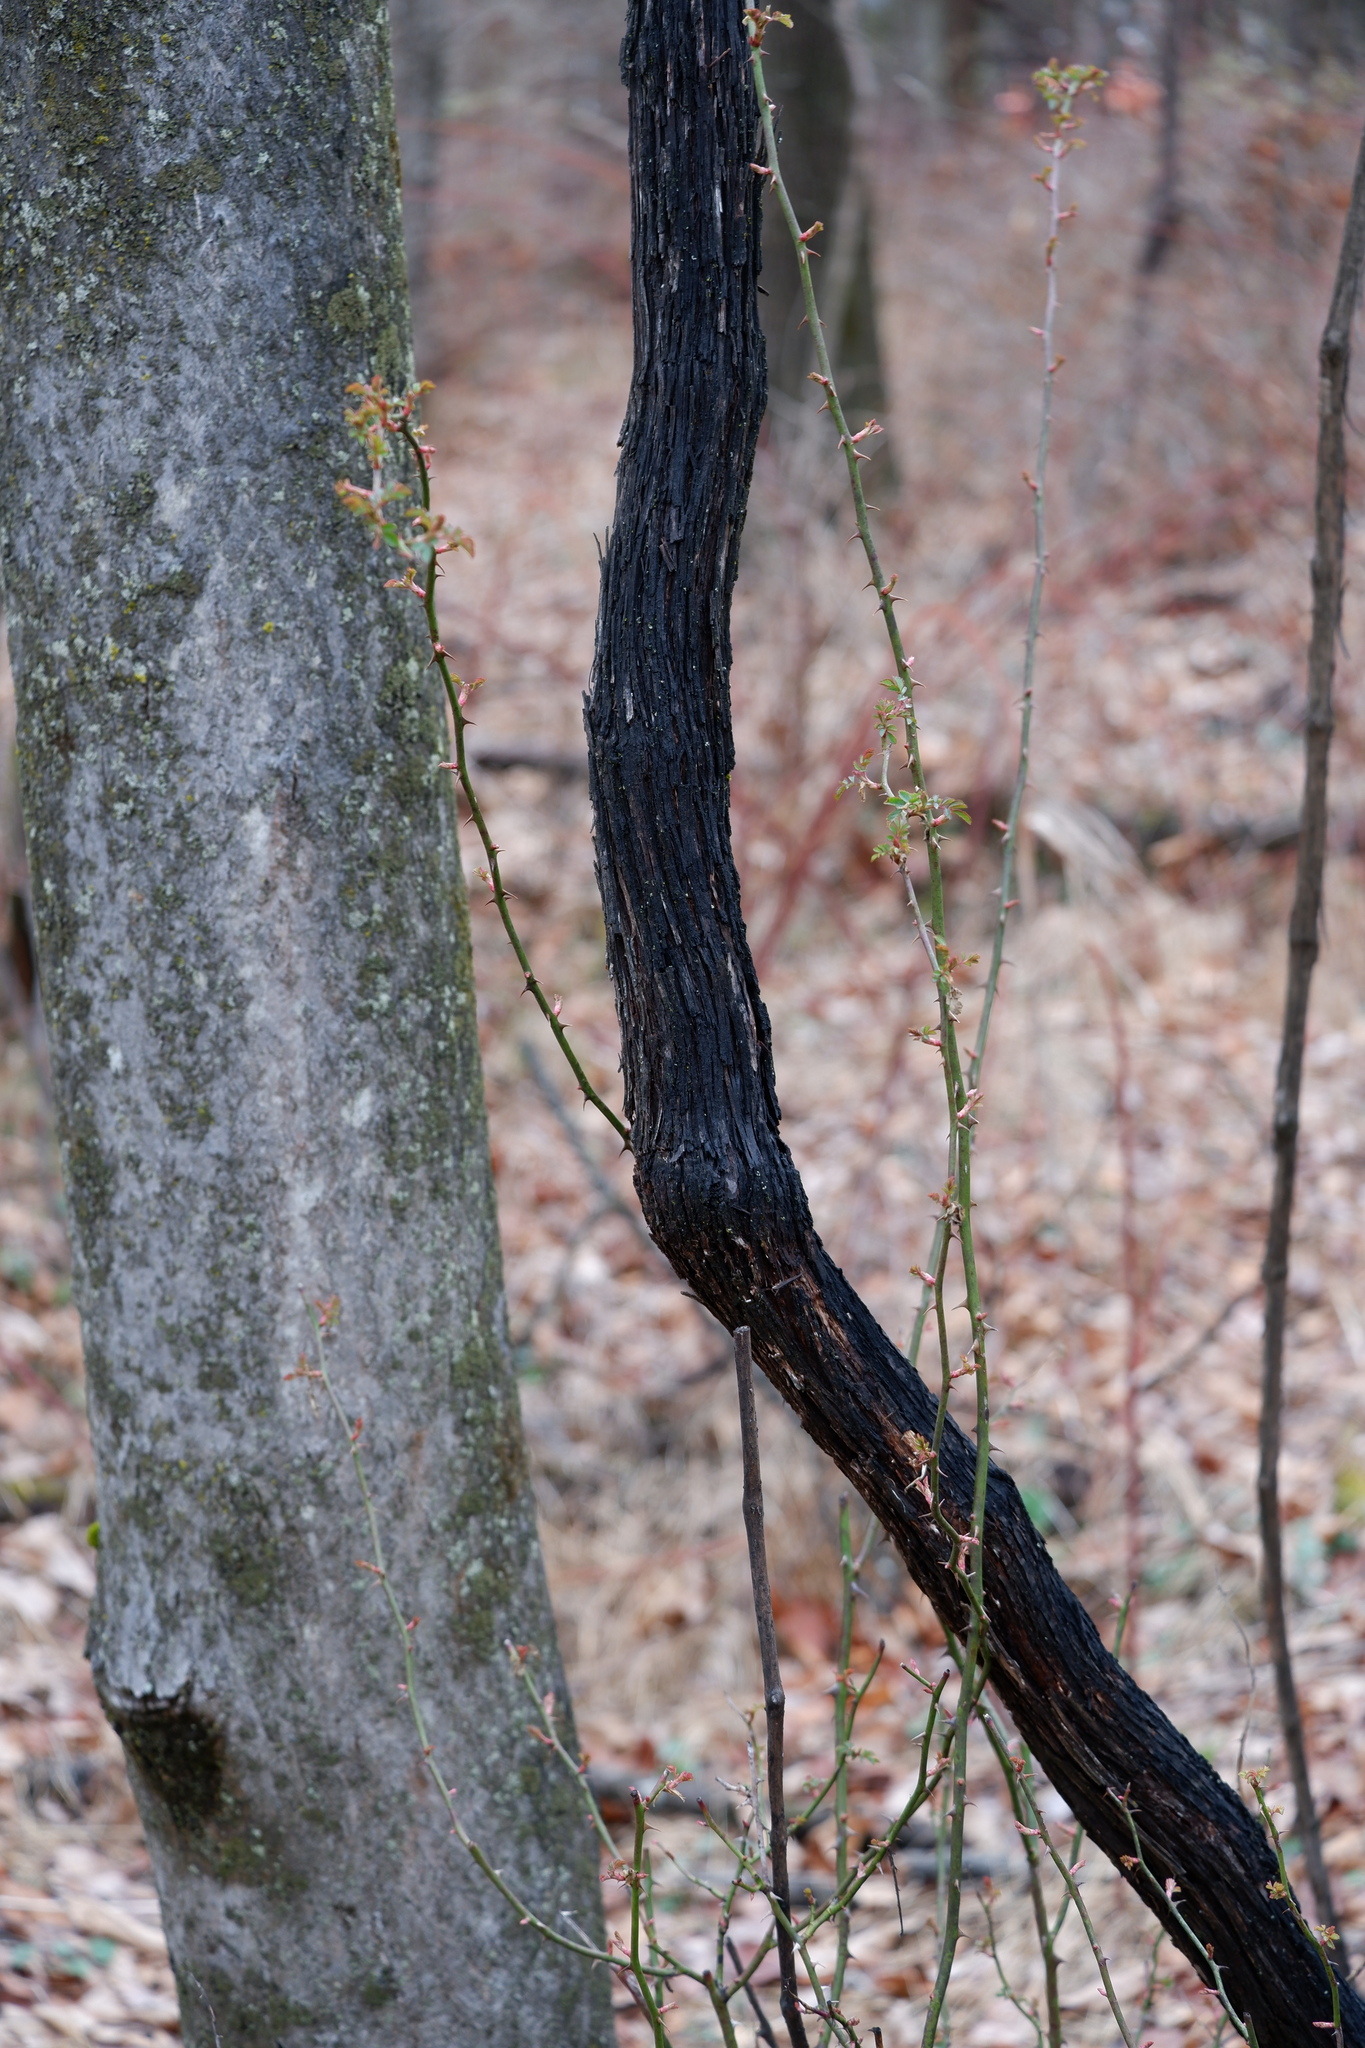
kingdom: Plantae
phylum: Tracheophyta
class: Magnoliopsida
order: Rosales
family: Rosaceae
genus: Rosa
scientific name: Rosa multiflora
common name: Multiflora rose
